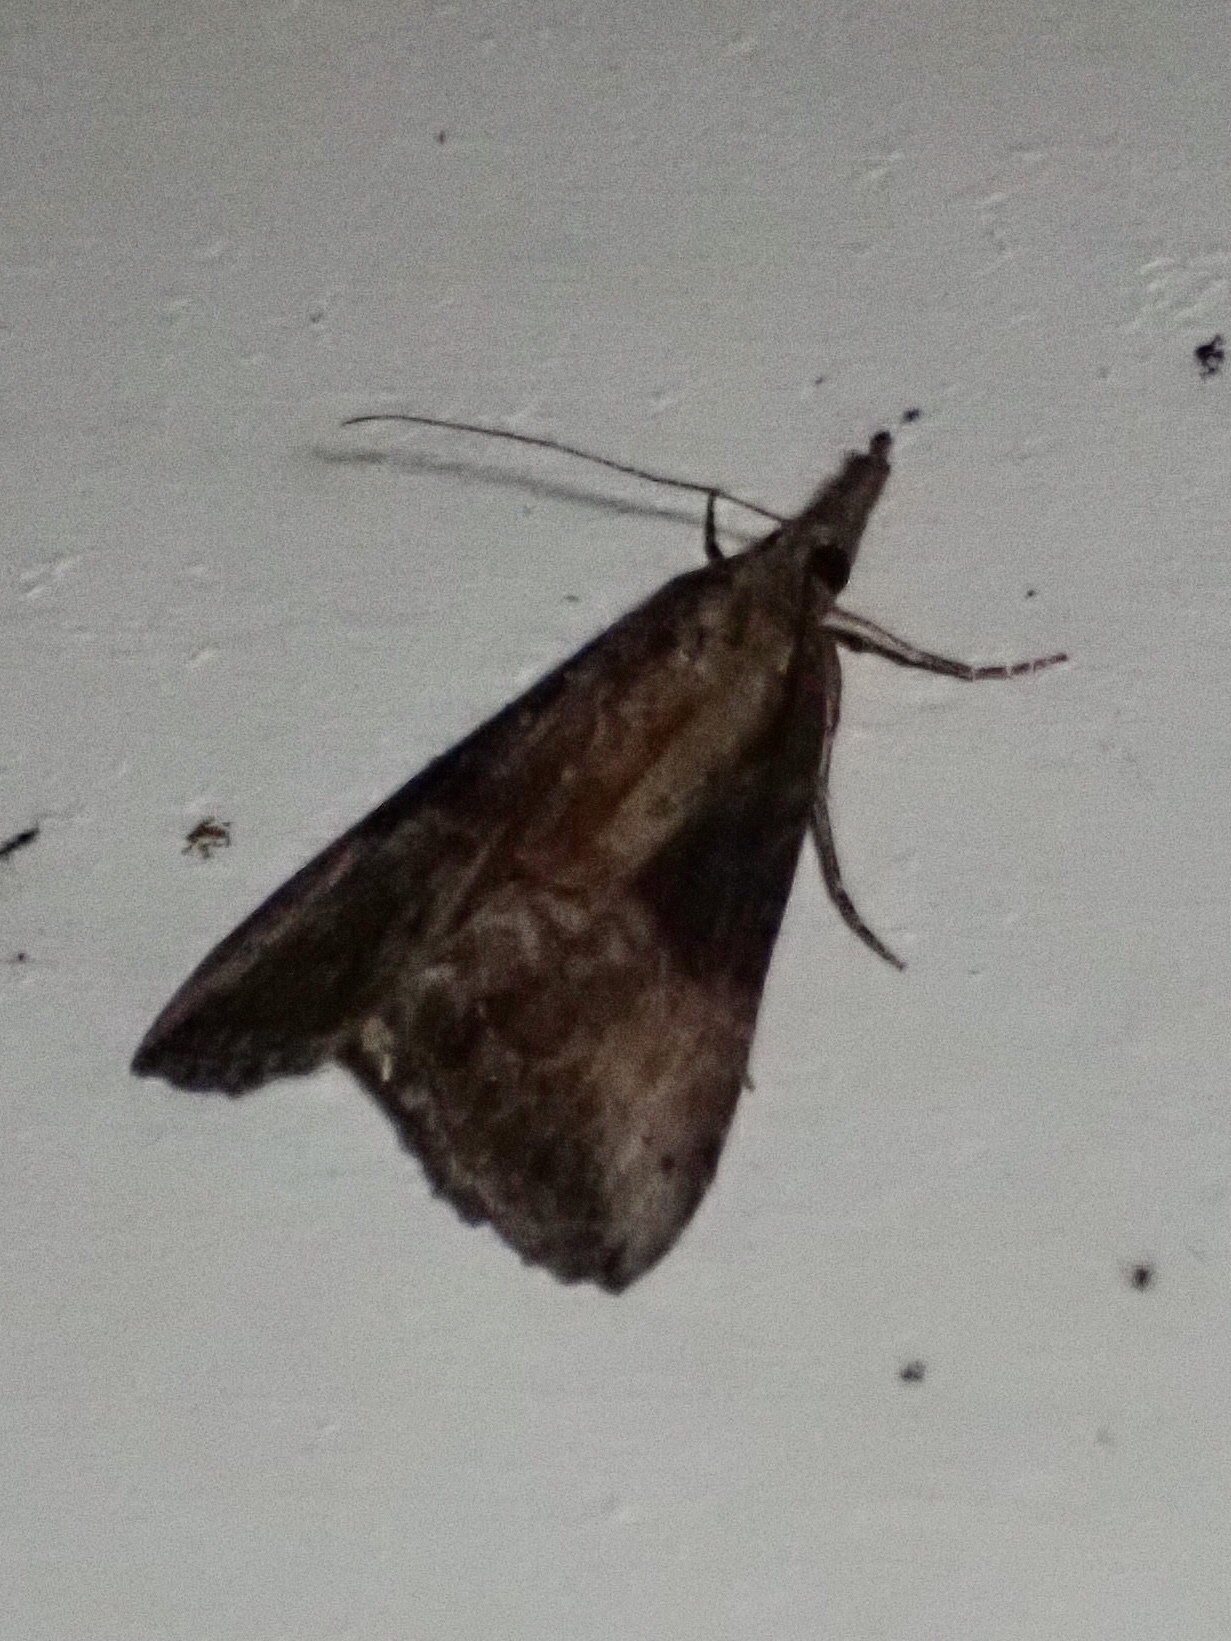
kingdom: Animalia
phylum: Arthropoda
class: Insecta
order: Lepidoptera
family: Erebidae
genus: Hypena
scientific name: Hypena scabra
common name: Green cloverworm
